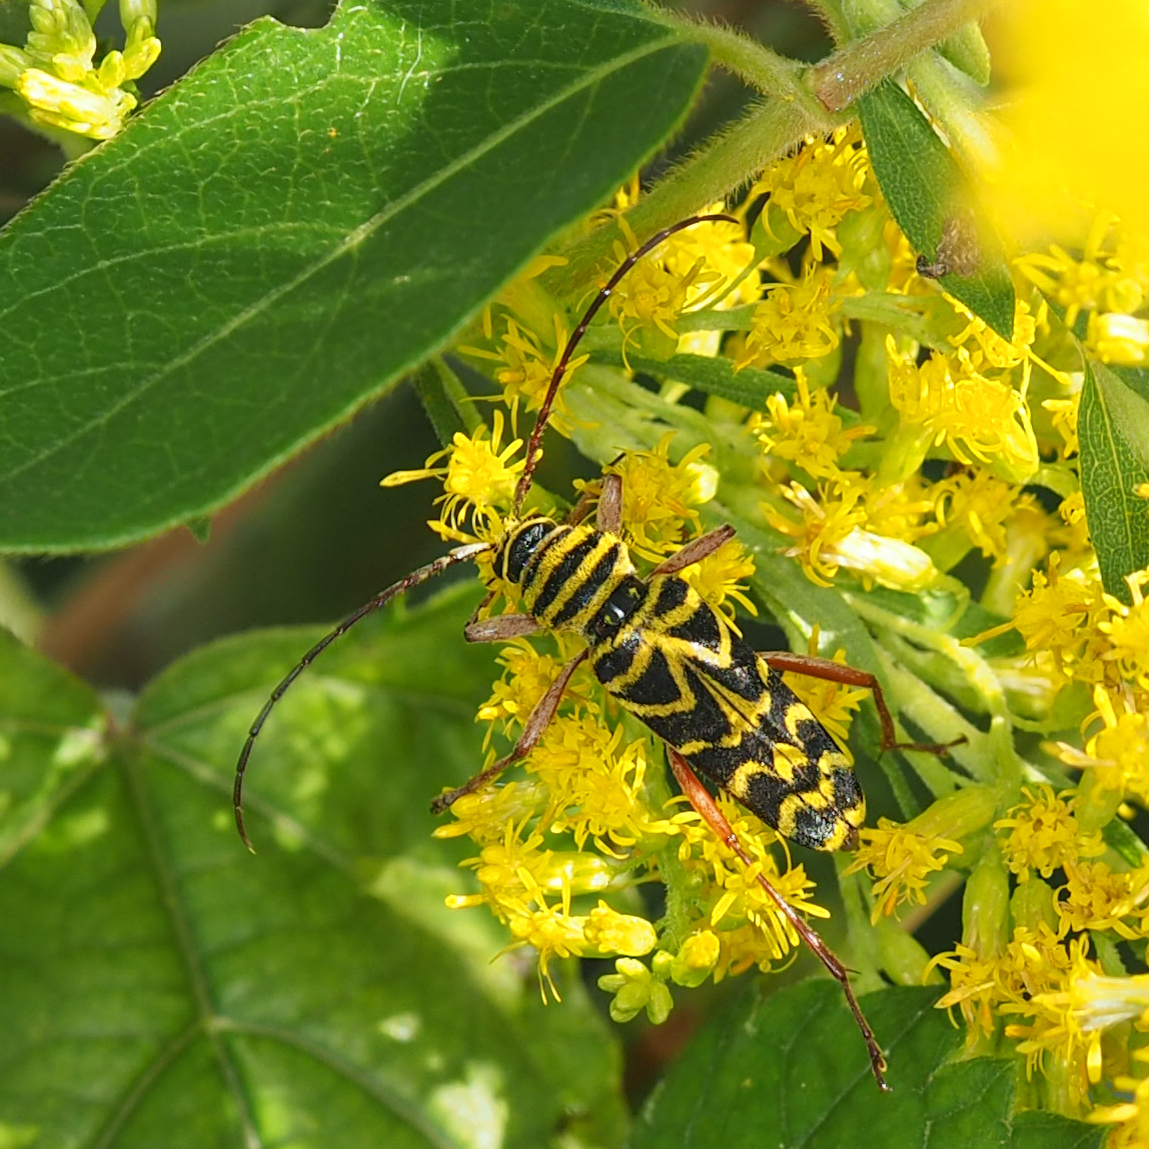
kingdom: Animalia
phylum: Arthropoda
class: Insecta
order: Coleoptera
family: Cerambycidae
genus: Megacyllene
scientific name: Megacyllene robiniae
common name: Locust borer
